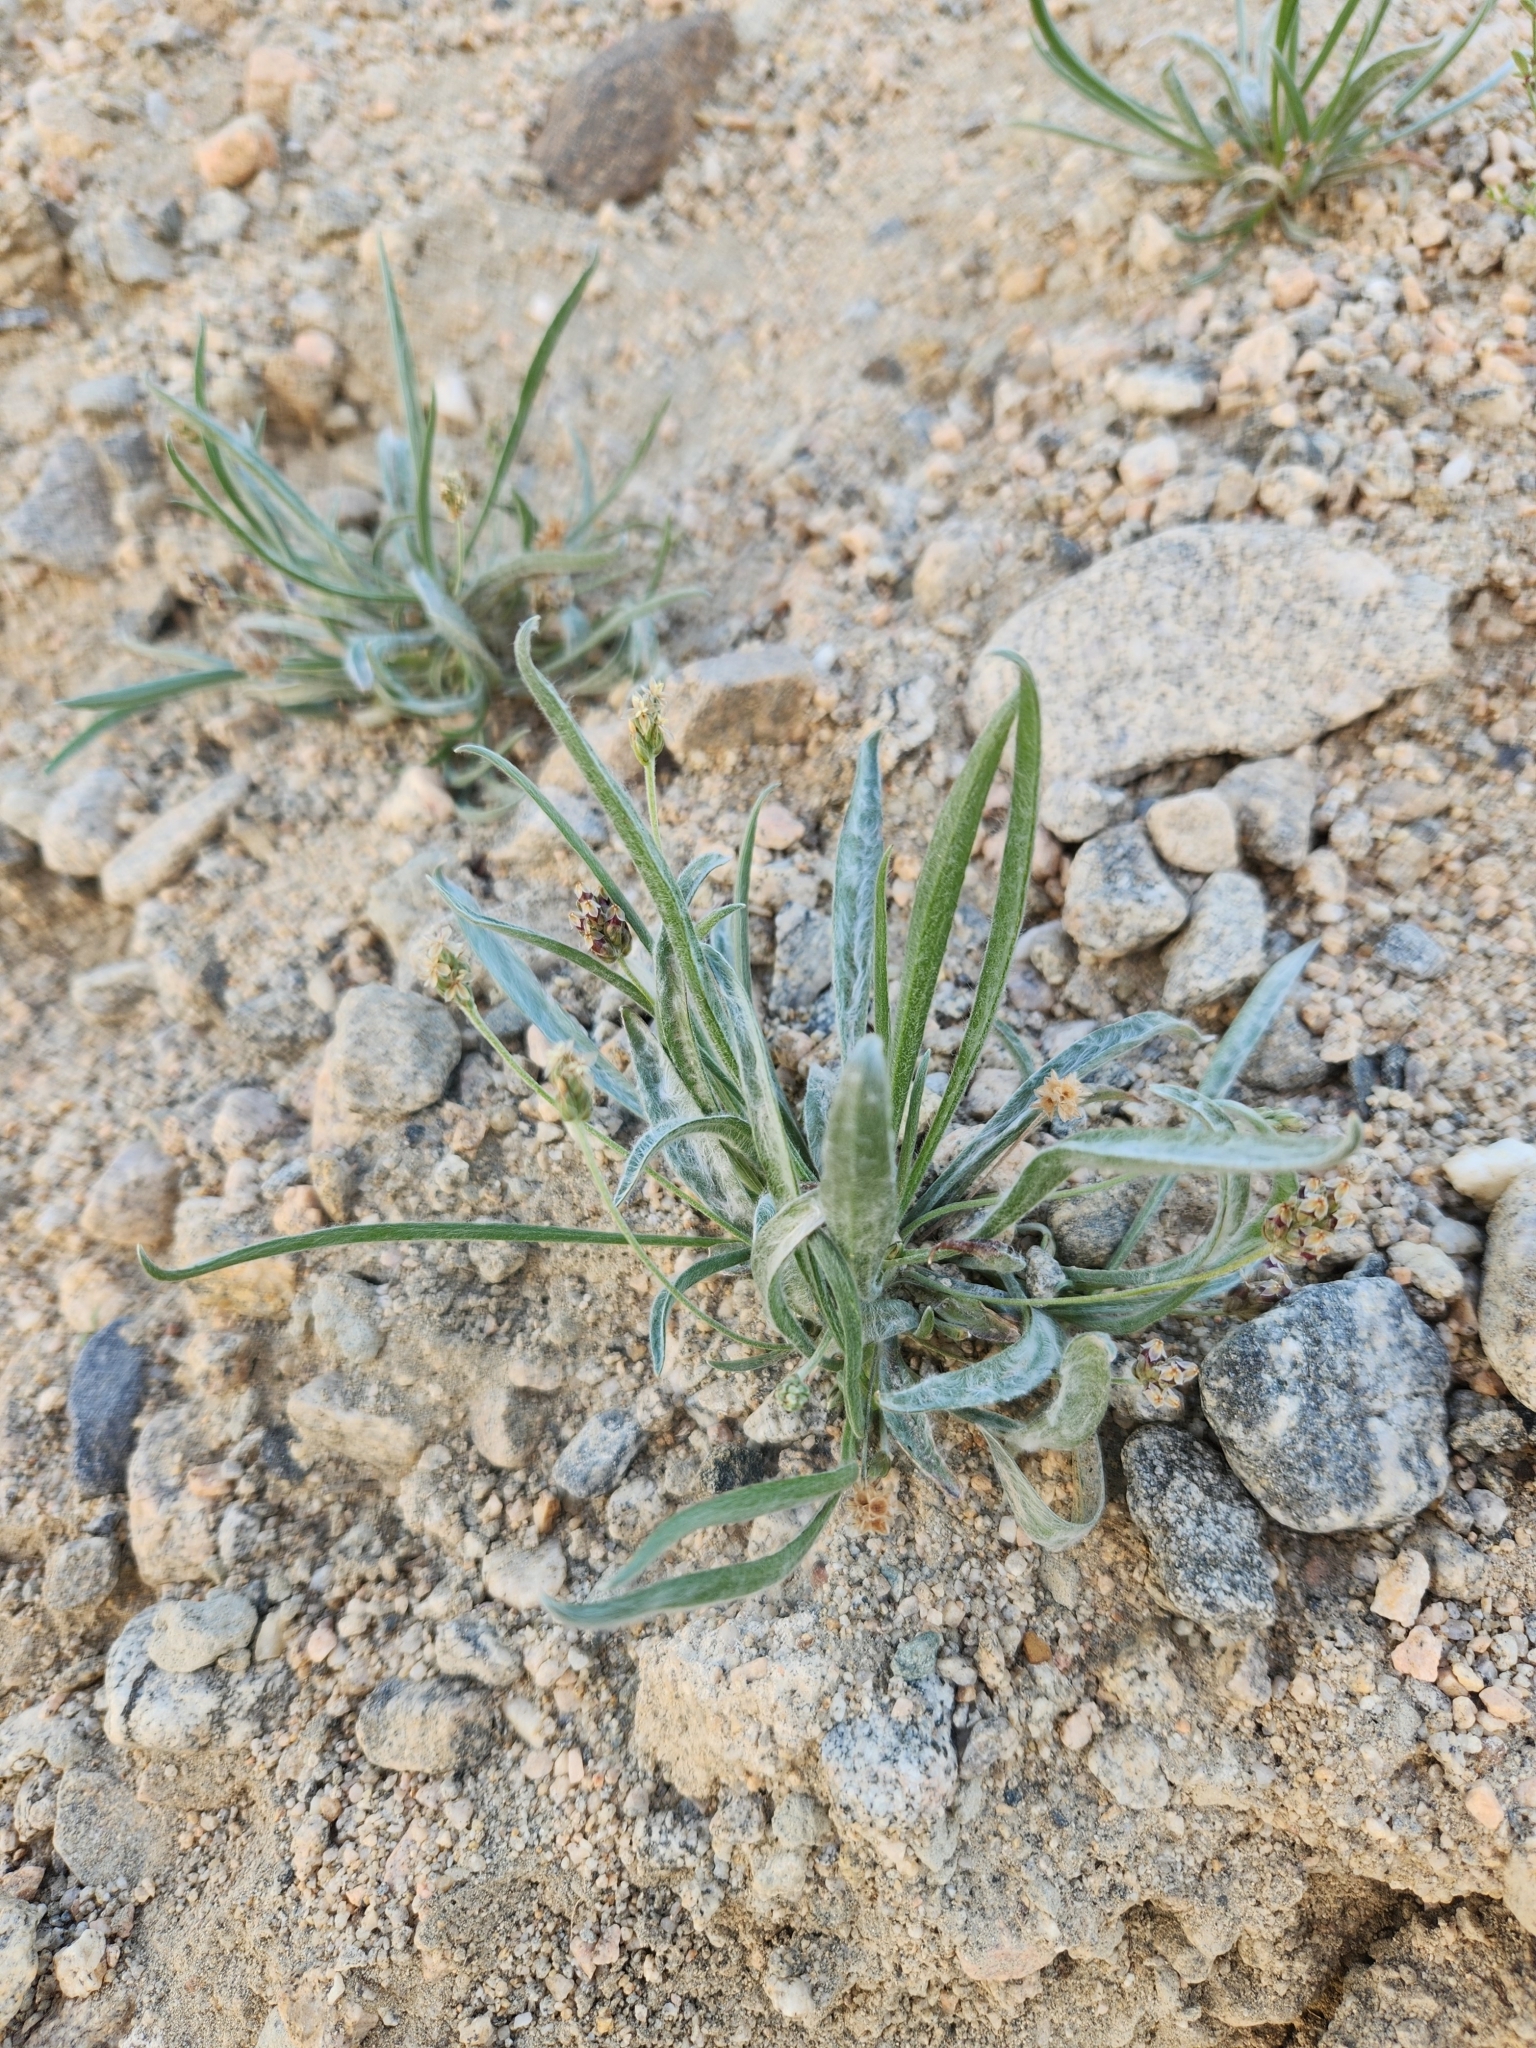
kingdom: Plantae
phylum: Tracheophyta
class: Magnoliopsida
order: Lamiales
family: Plantaginaceae
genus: Plantago
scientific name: Plantago ovata
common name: Blond plantain
